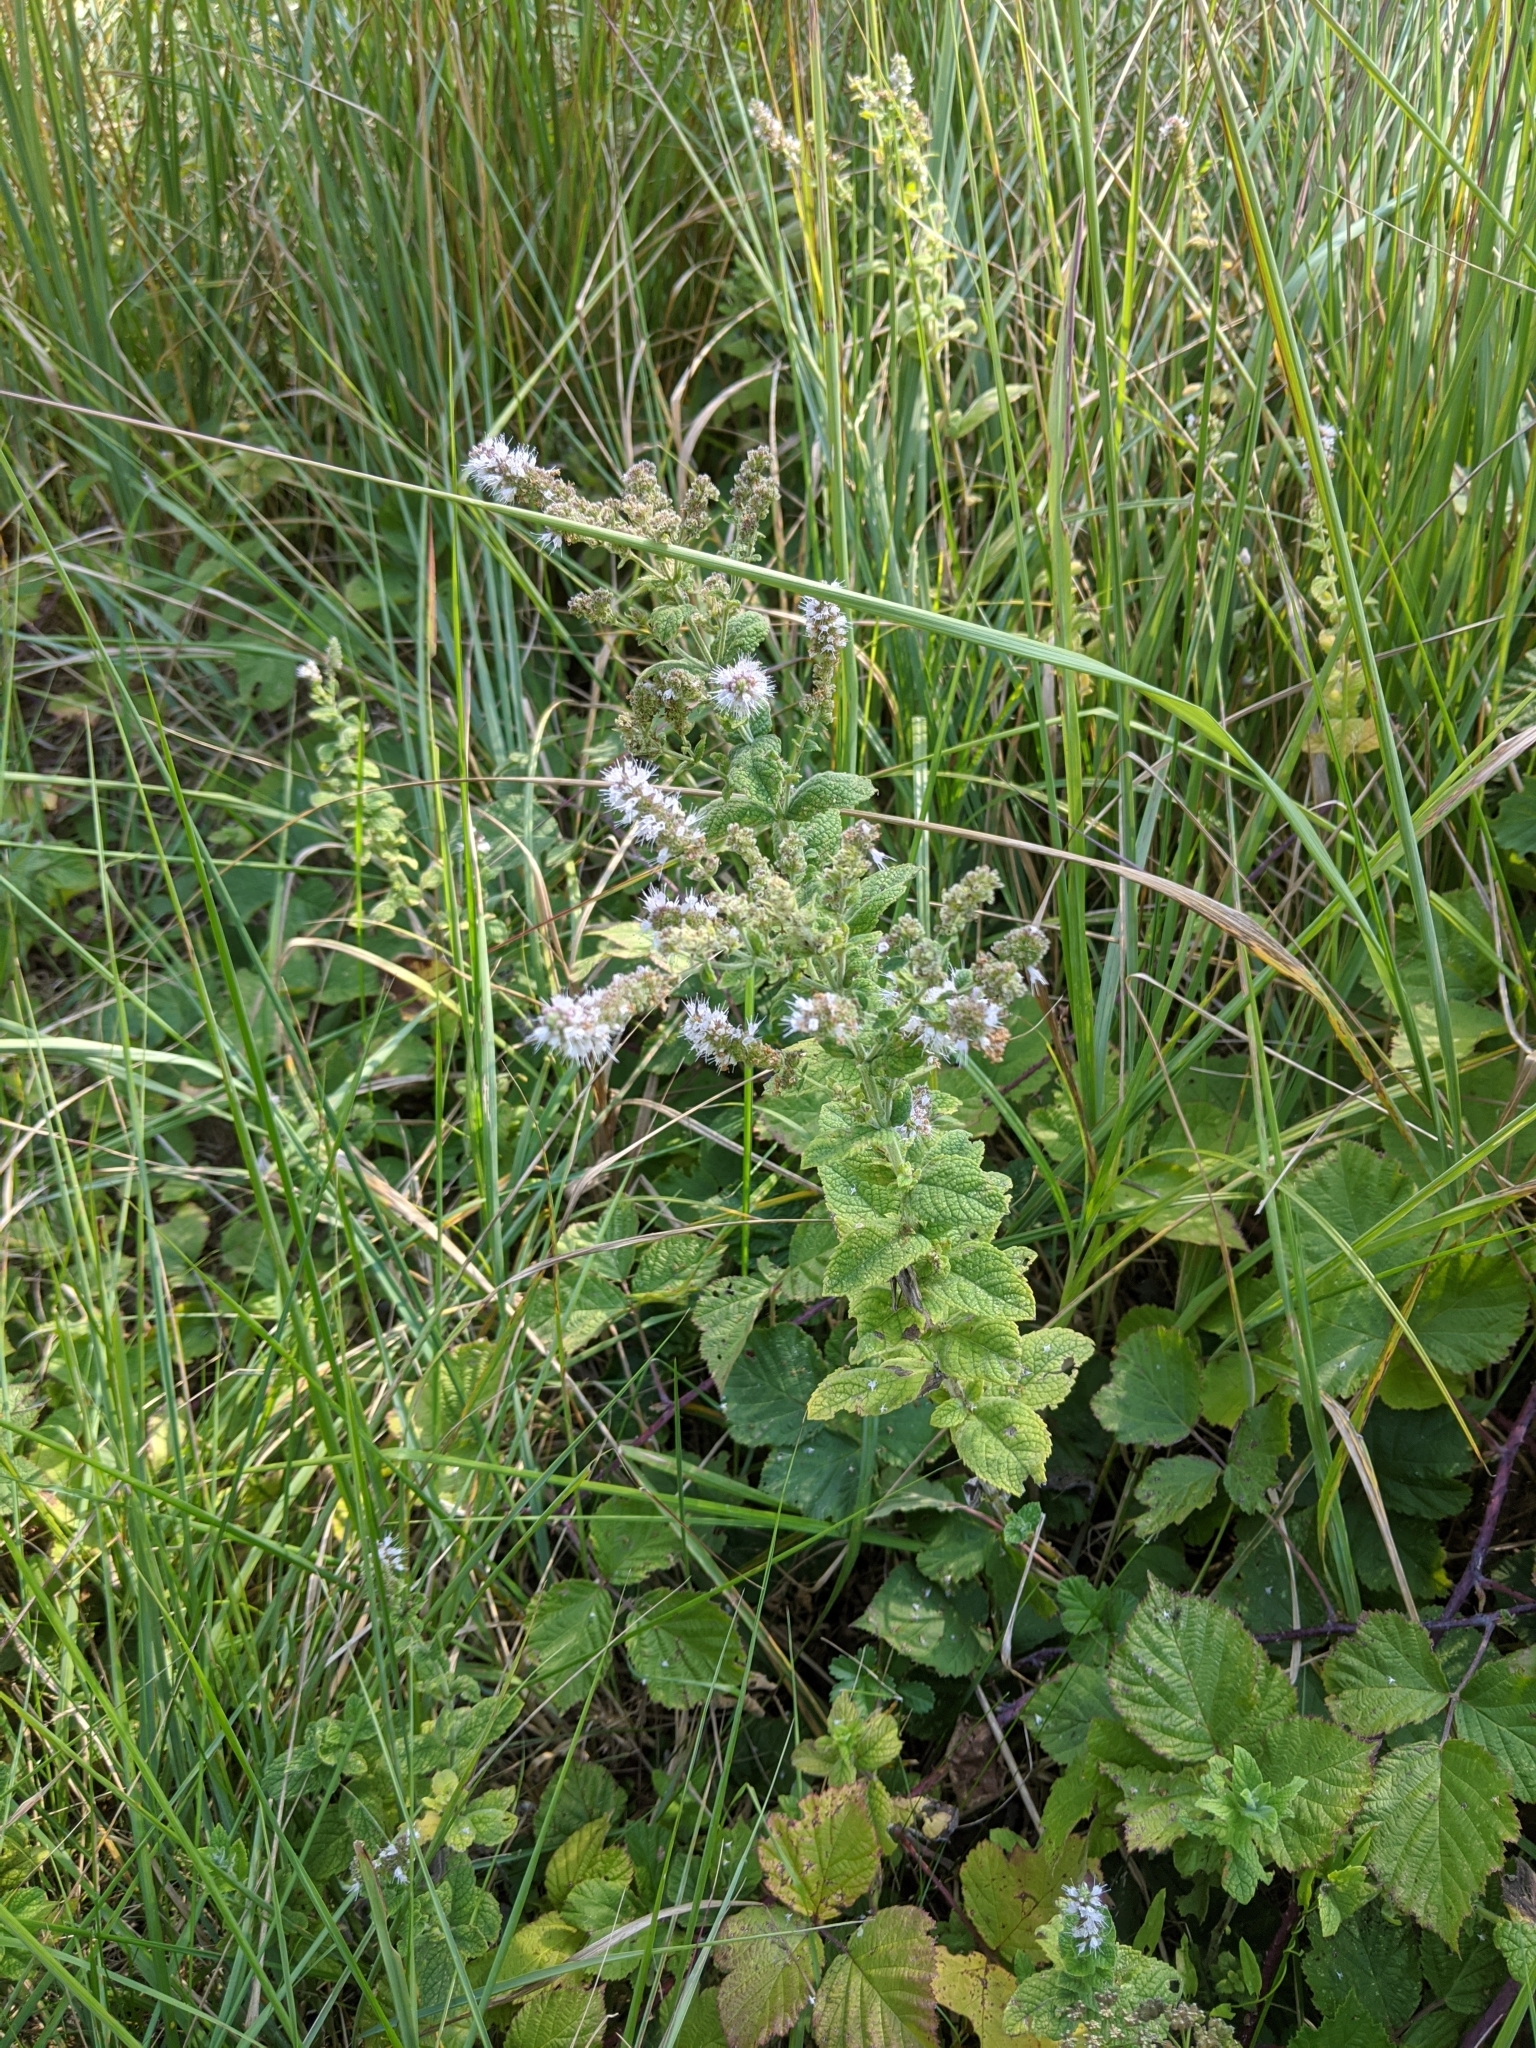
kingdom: Plantae
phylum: Tracheophyta
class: Magnoliopsida
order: Lamiales
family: Lamiaceae
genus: Mentha
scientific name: Mentha suaveolens
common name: Apple mint
